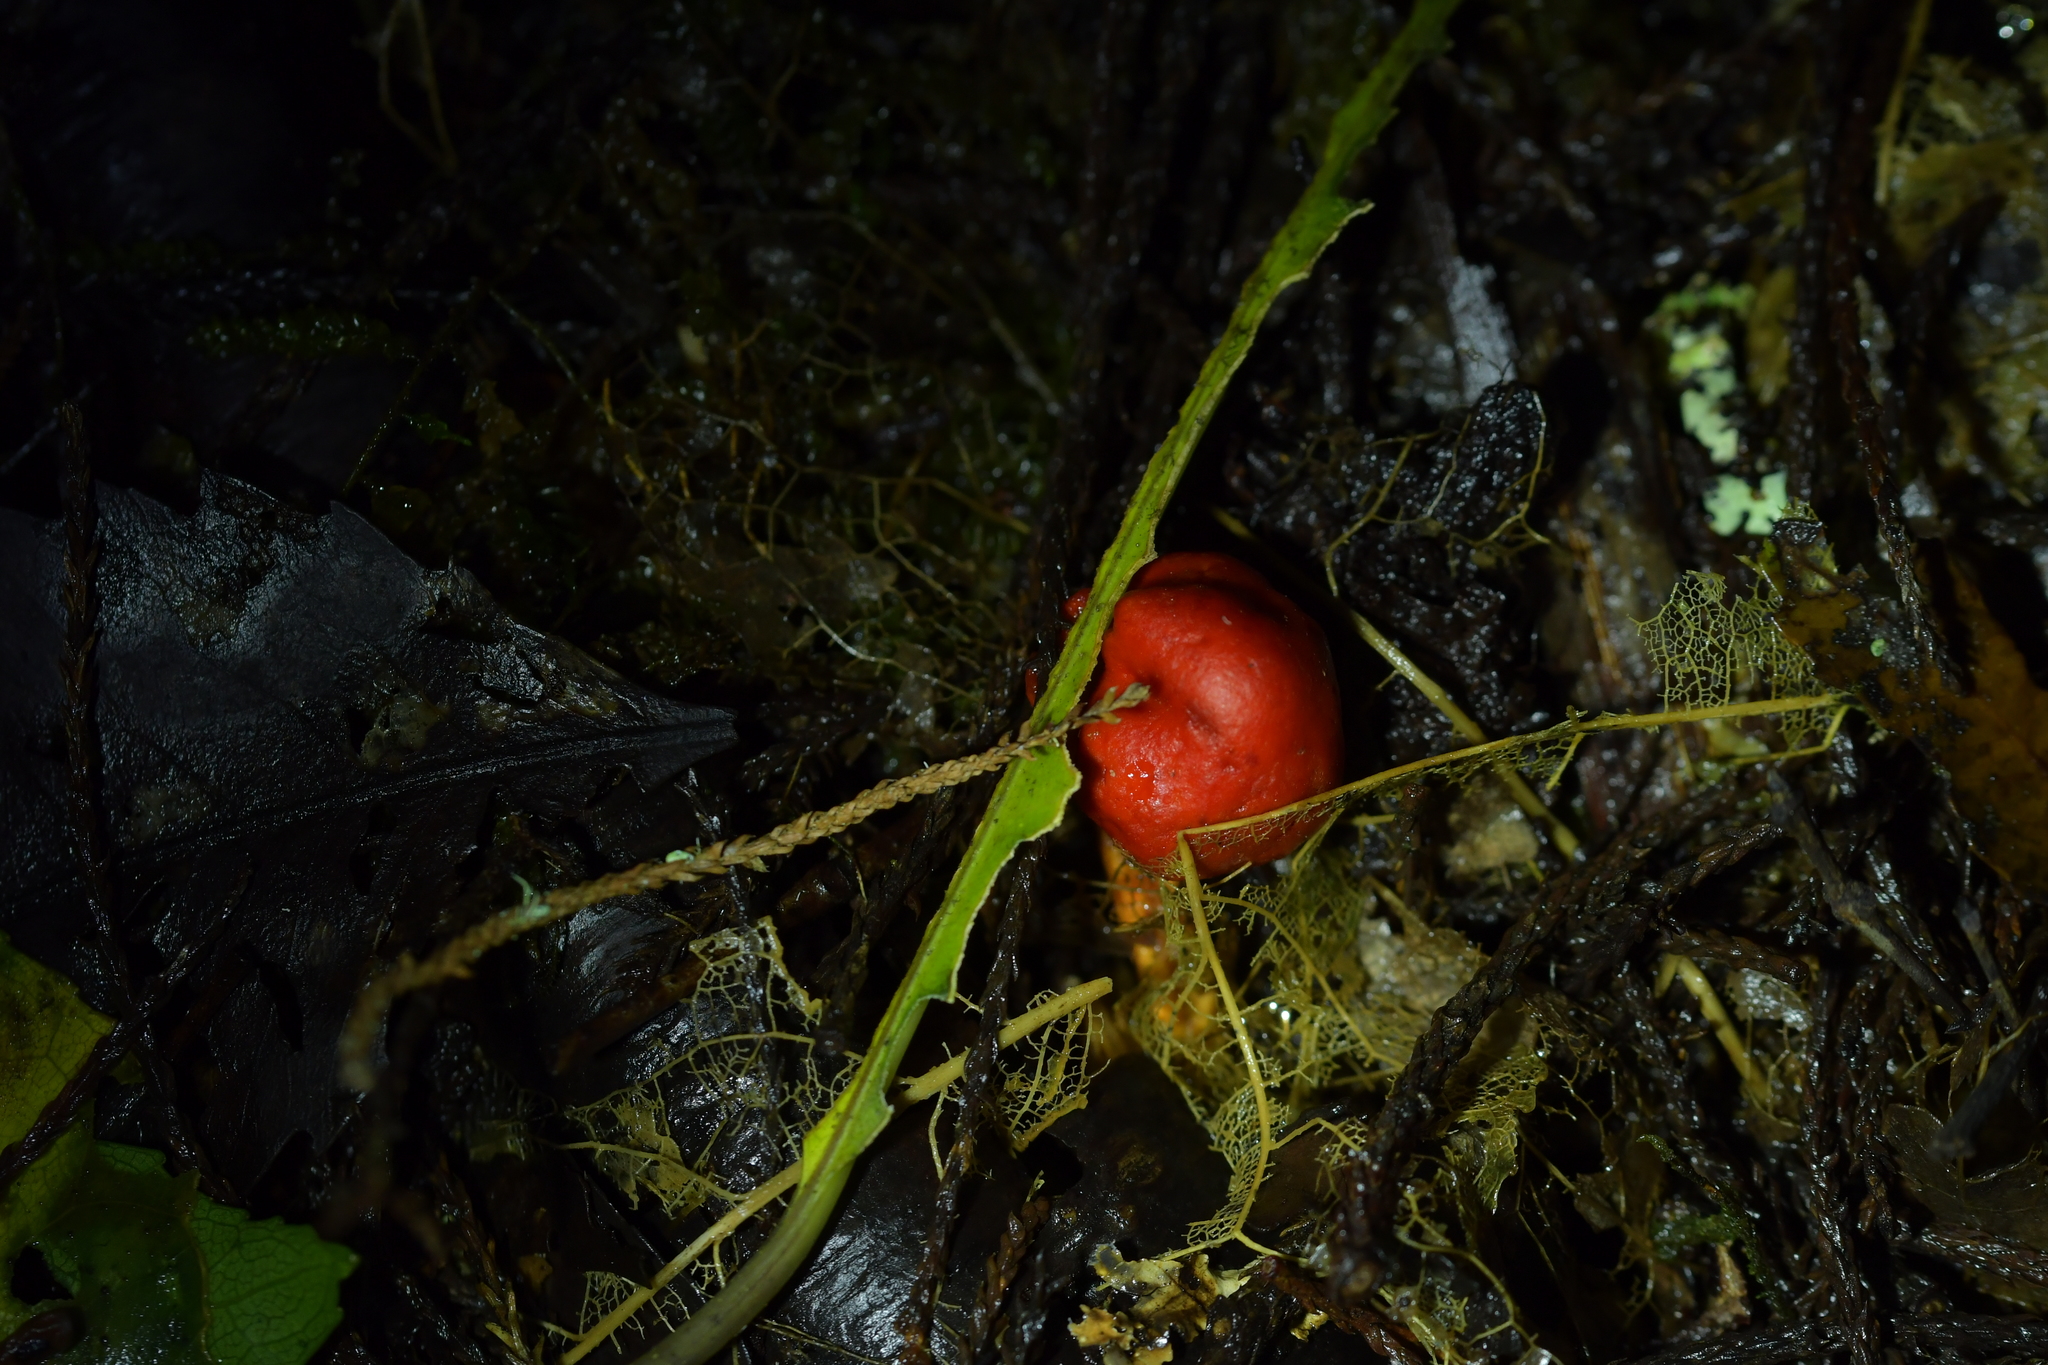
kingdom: Fungi
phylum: Basidiomycota
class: Agaricomycetes
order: Agaricales
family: Strophariaceae
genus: Leratiomyces
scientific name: Leratiomyces erythrocephalus
